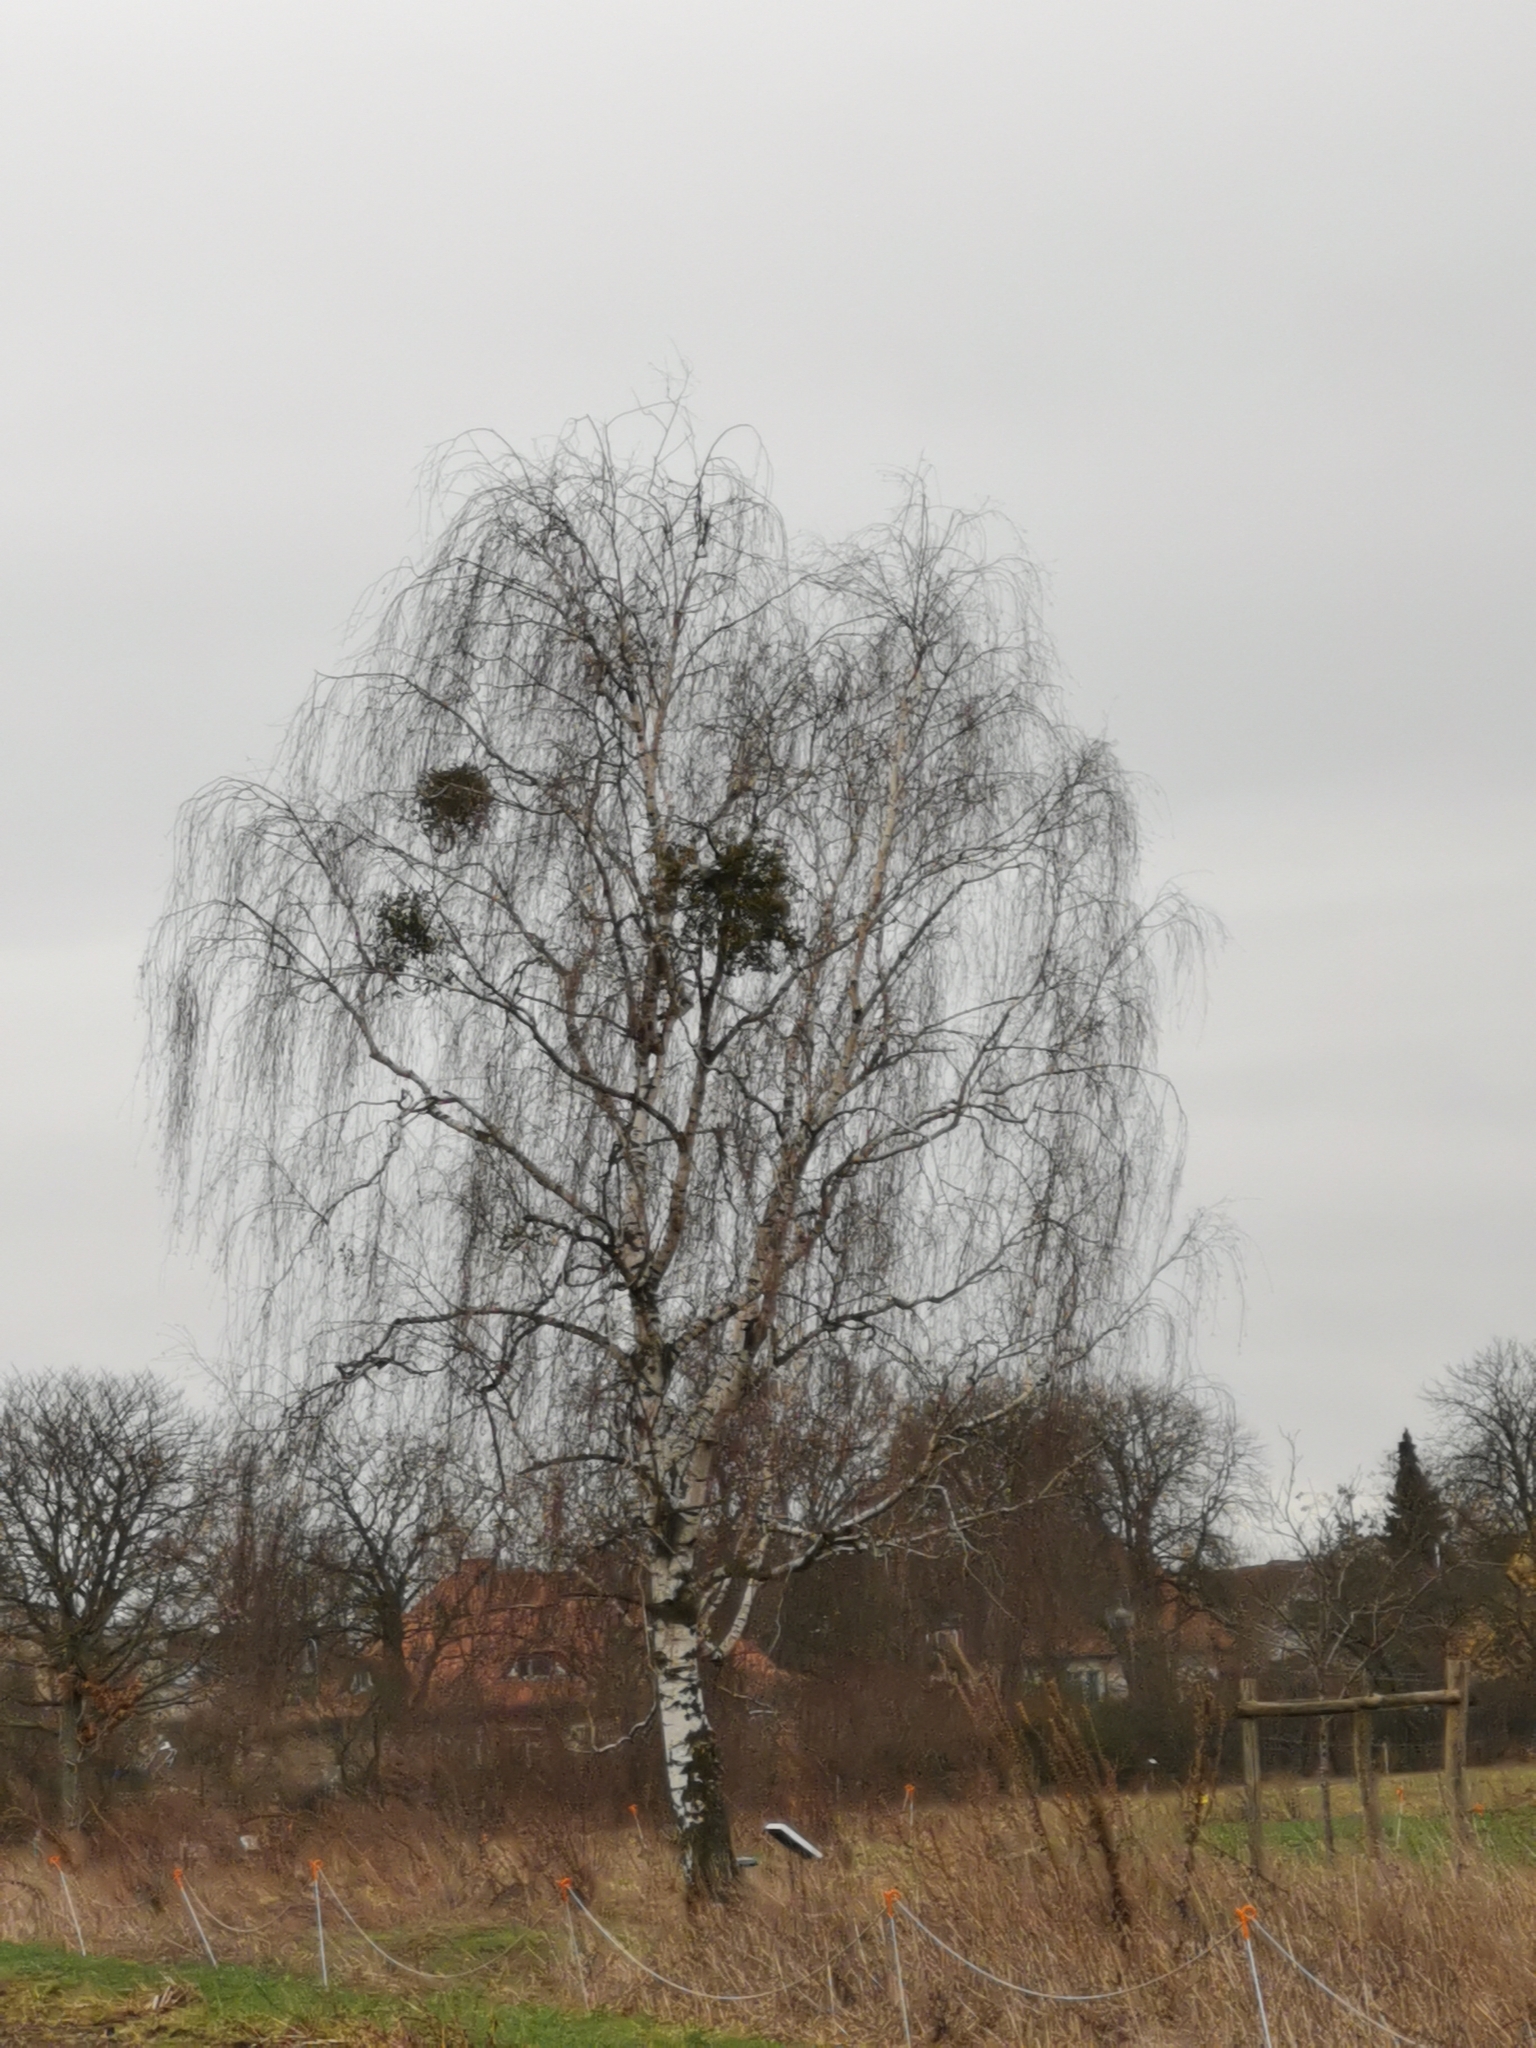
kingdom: Plantae
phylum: Tracheophyta
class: Magnoliopsida
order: Fagales
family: Betulaceae
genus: Betula
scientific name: Betula pendula
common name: Silver birch
